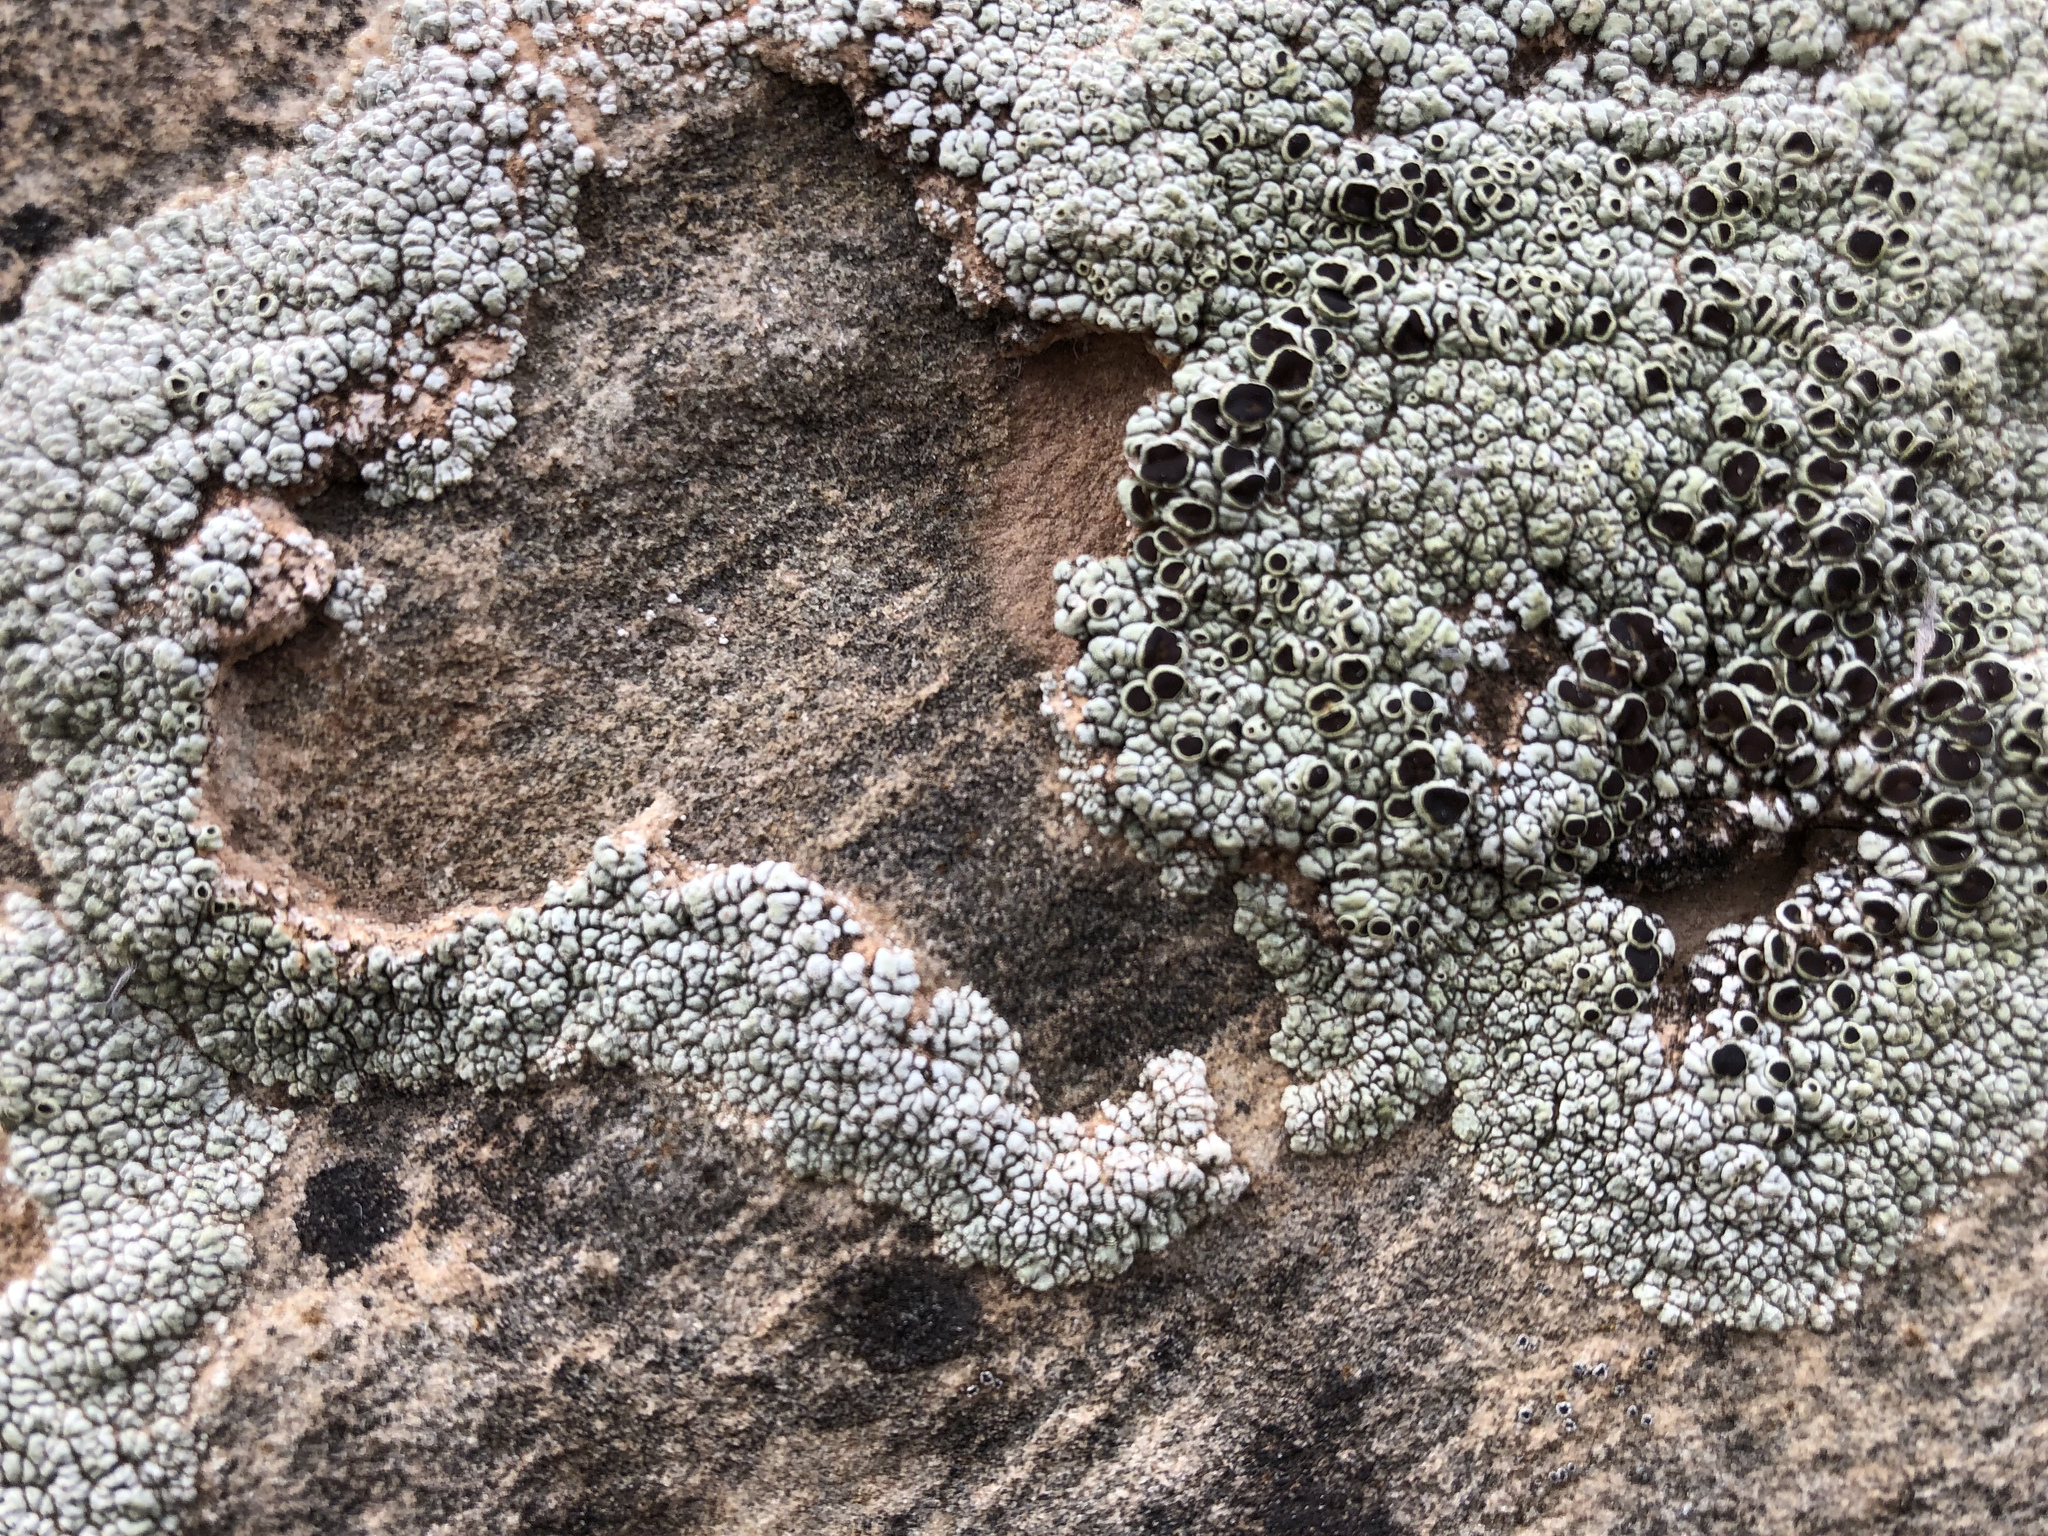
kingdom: Fungi
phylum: Ascomycota
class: Lecanoromycetes
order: Lecanorales
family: Lecanoraceae
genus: Lecanora
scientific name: Lecanora argopholis
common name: Varying rim lichen
